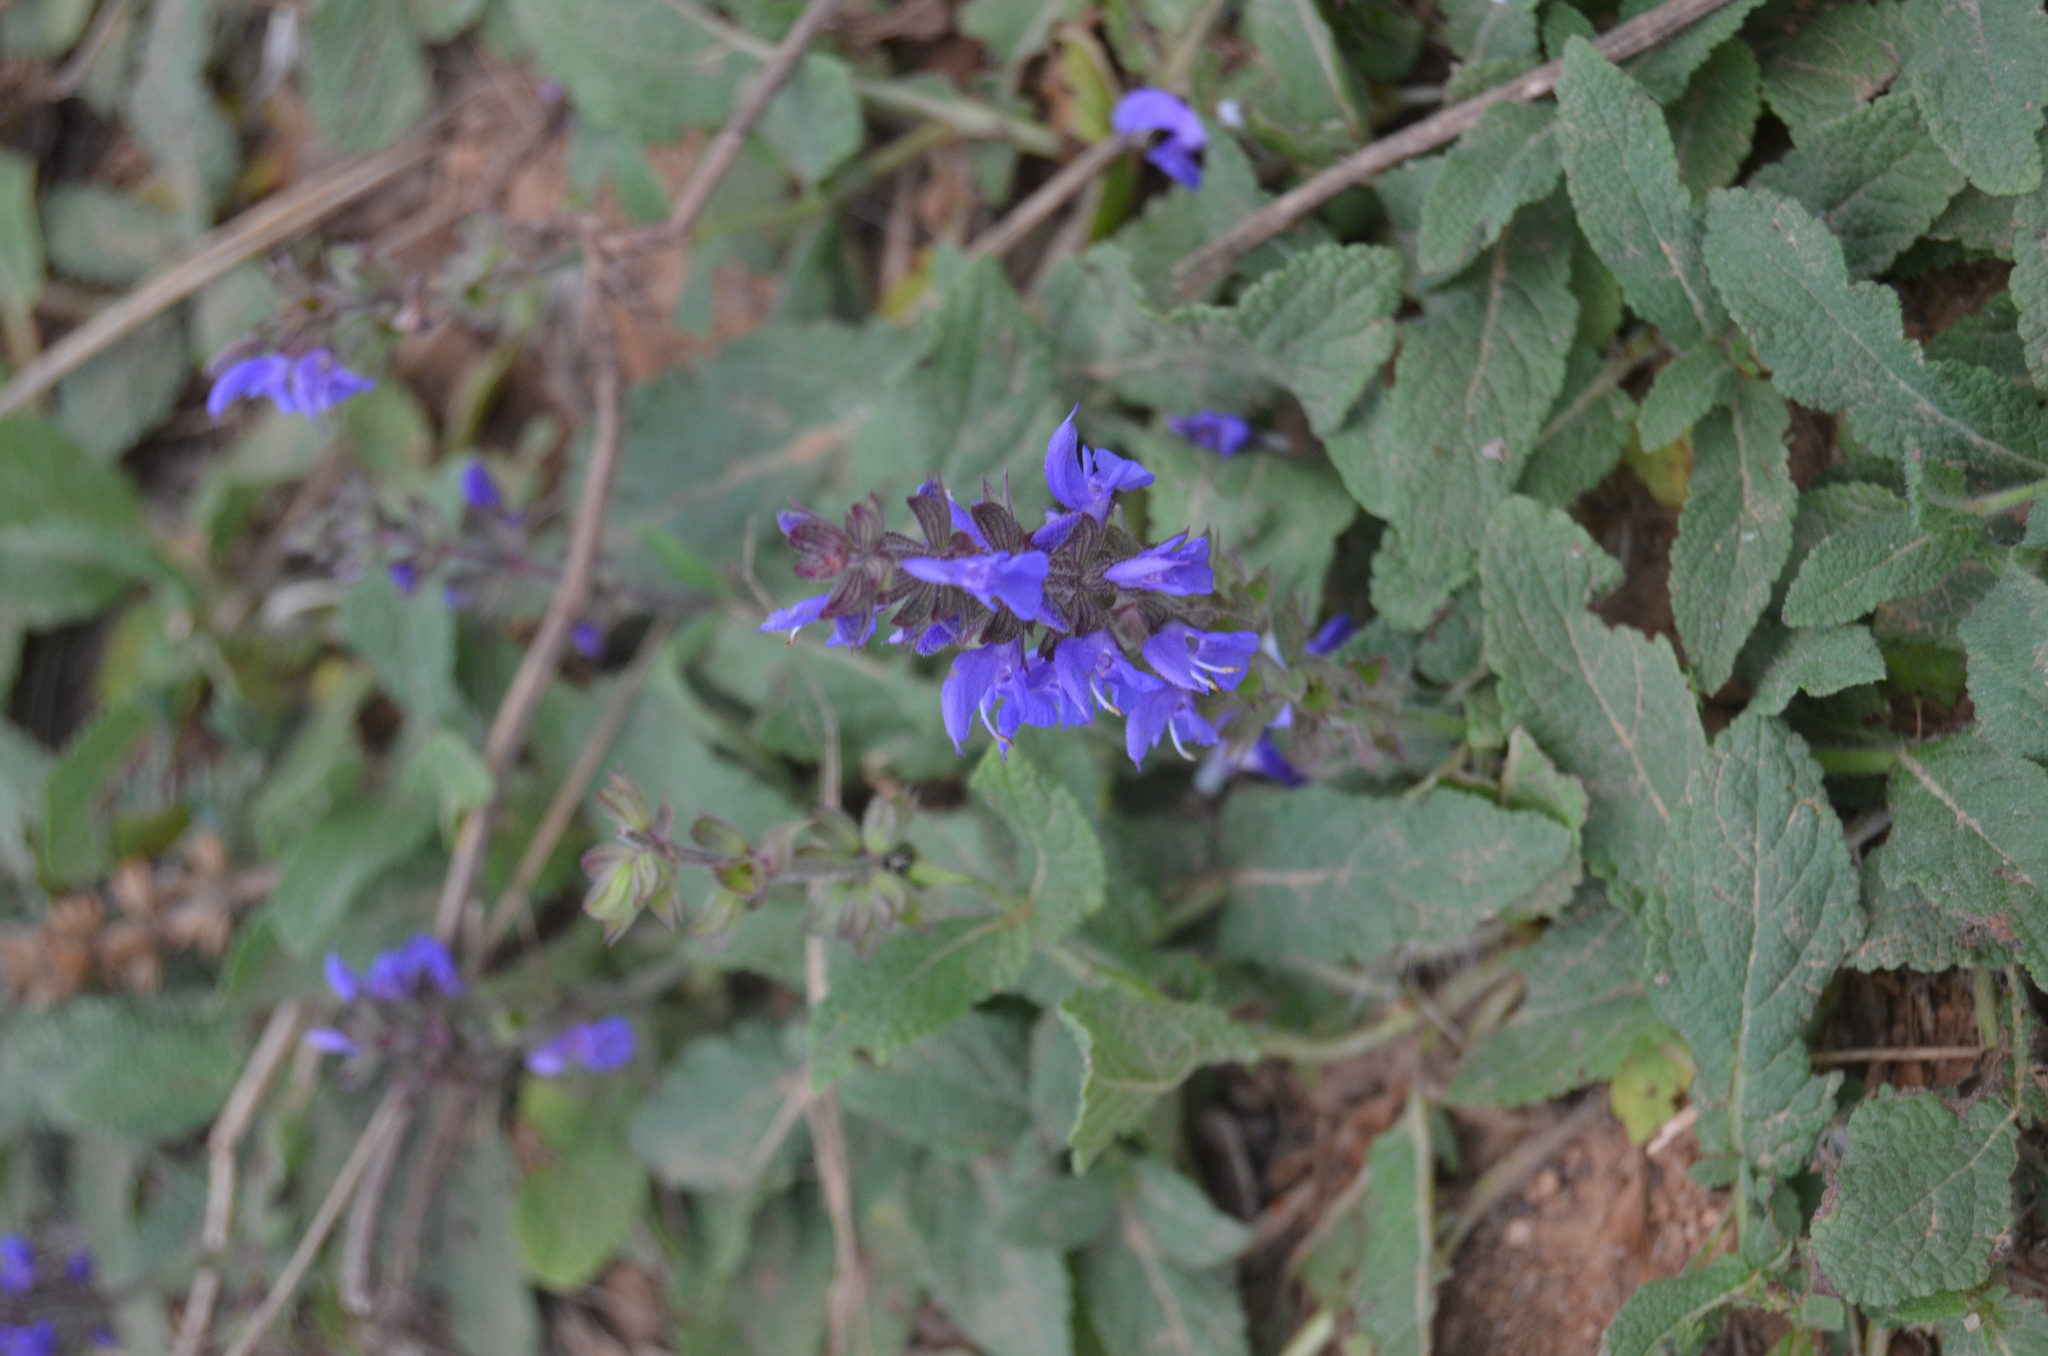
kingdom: Plantae
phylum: Tracheophyta
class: Magnoliopsida
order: Lamiales
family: Lamiaceae
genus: Salvia
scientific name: Salvia pratensis
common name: Meadow sage
